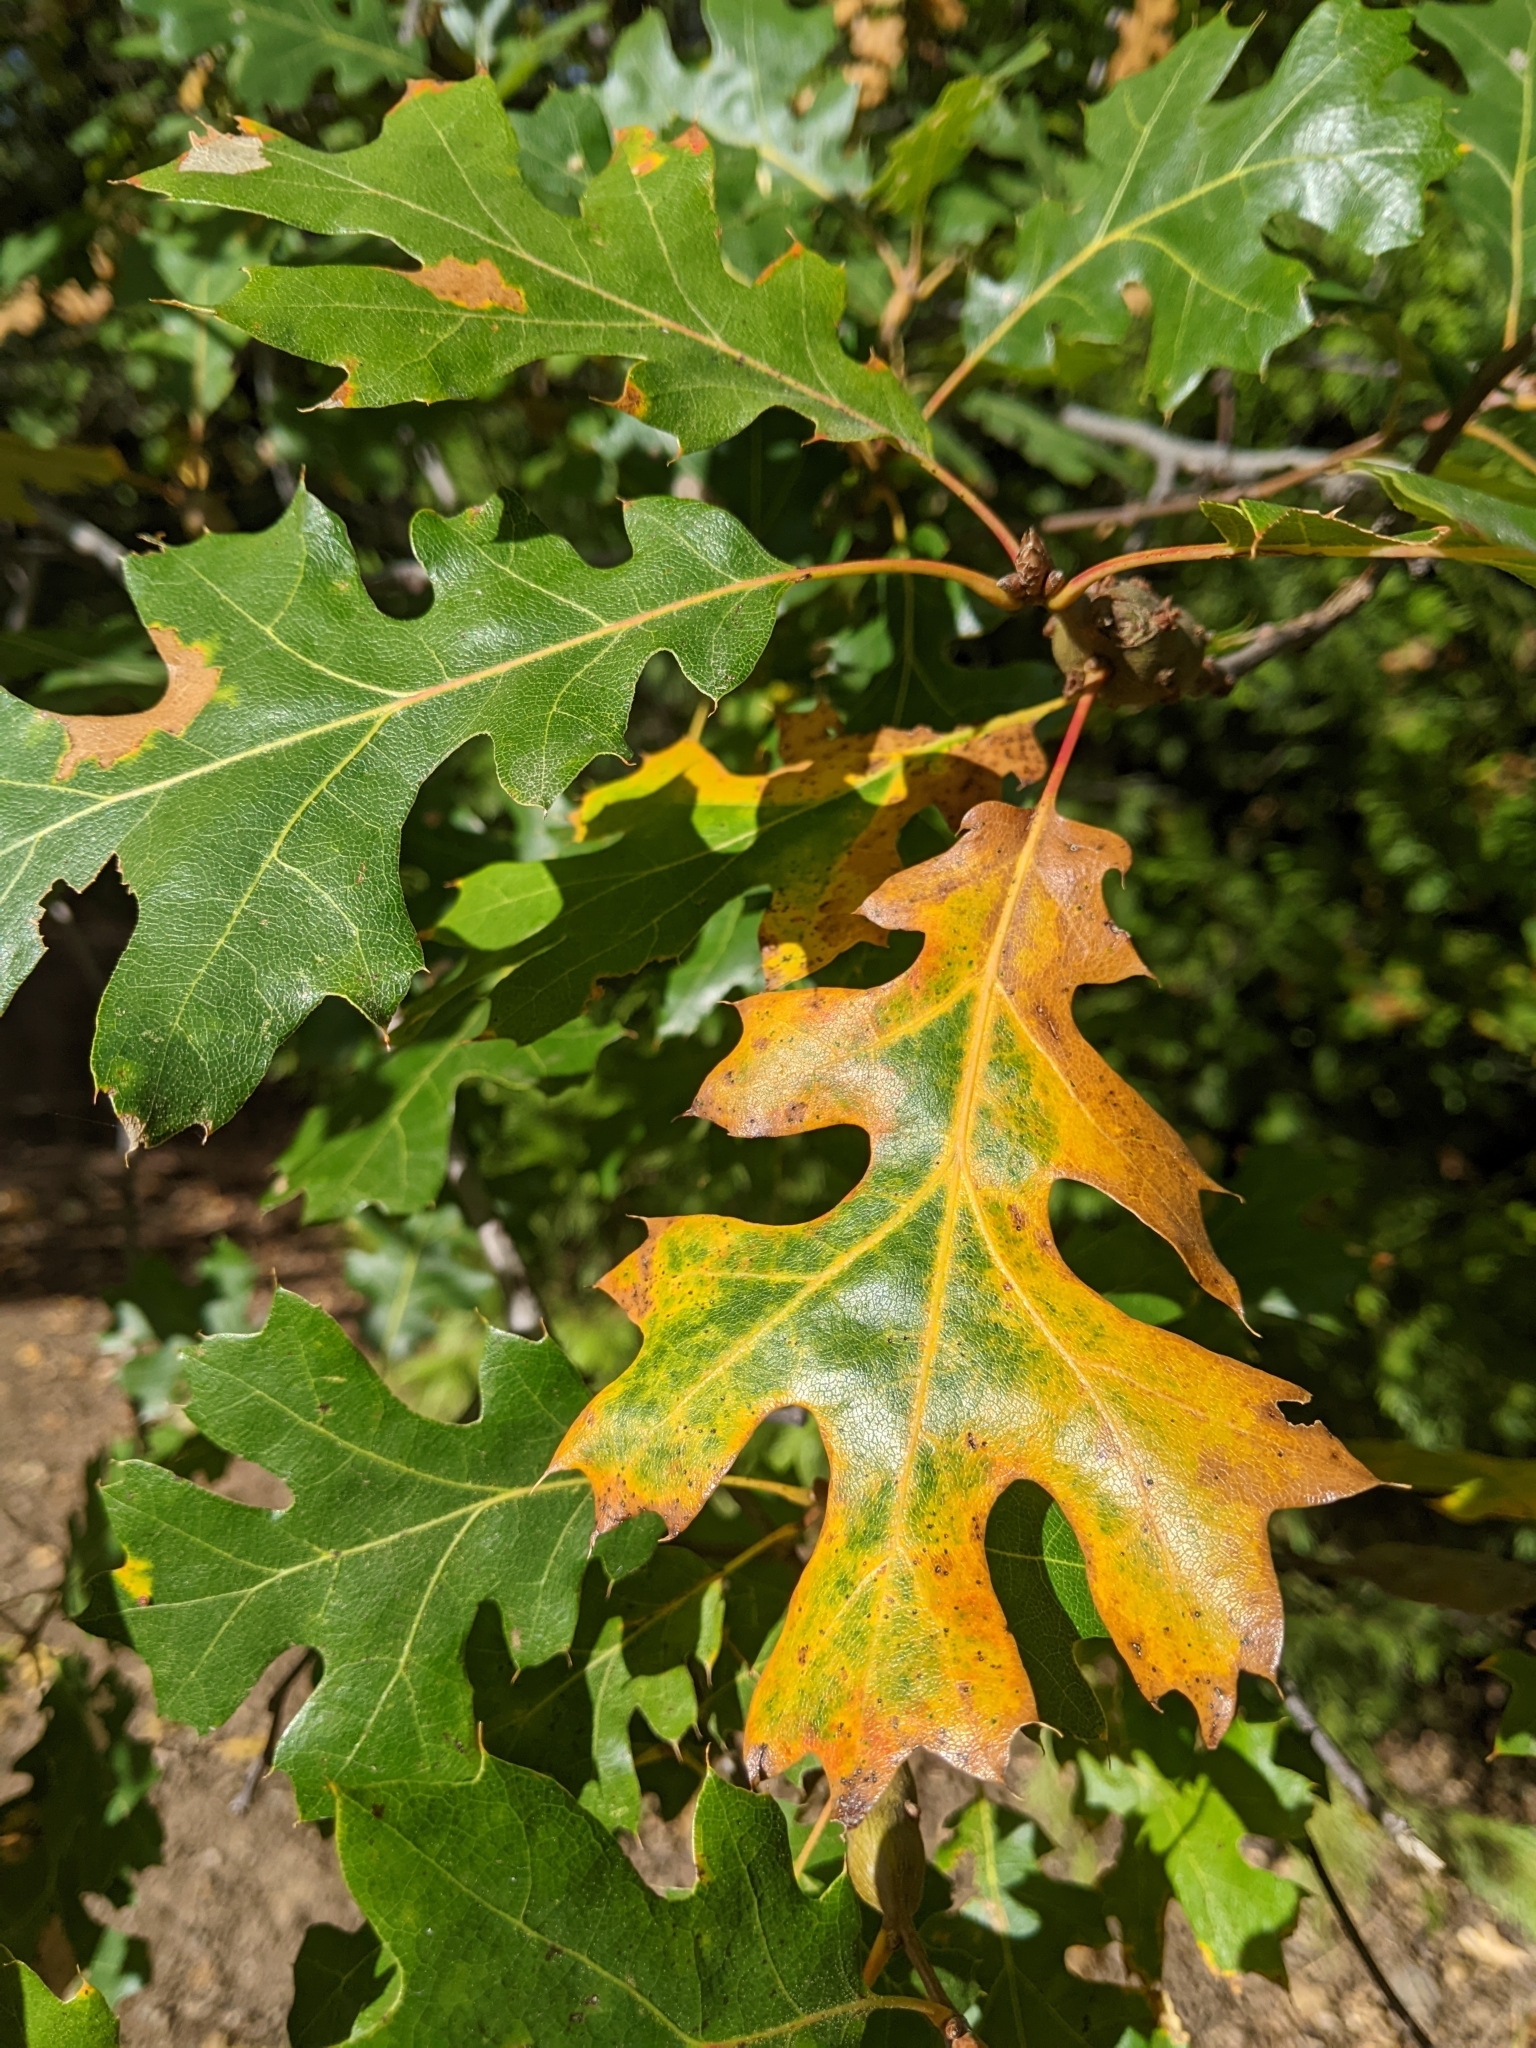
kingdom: Plantae
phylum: Tracheophyta
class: Magnoliopsida
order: Fagales
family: Fagaceae
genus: Quercus
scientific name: Quercus kelloggii
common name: California black oak
